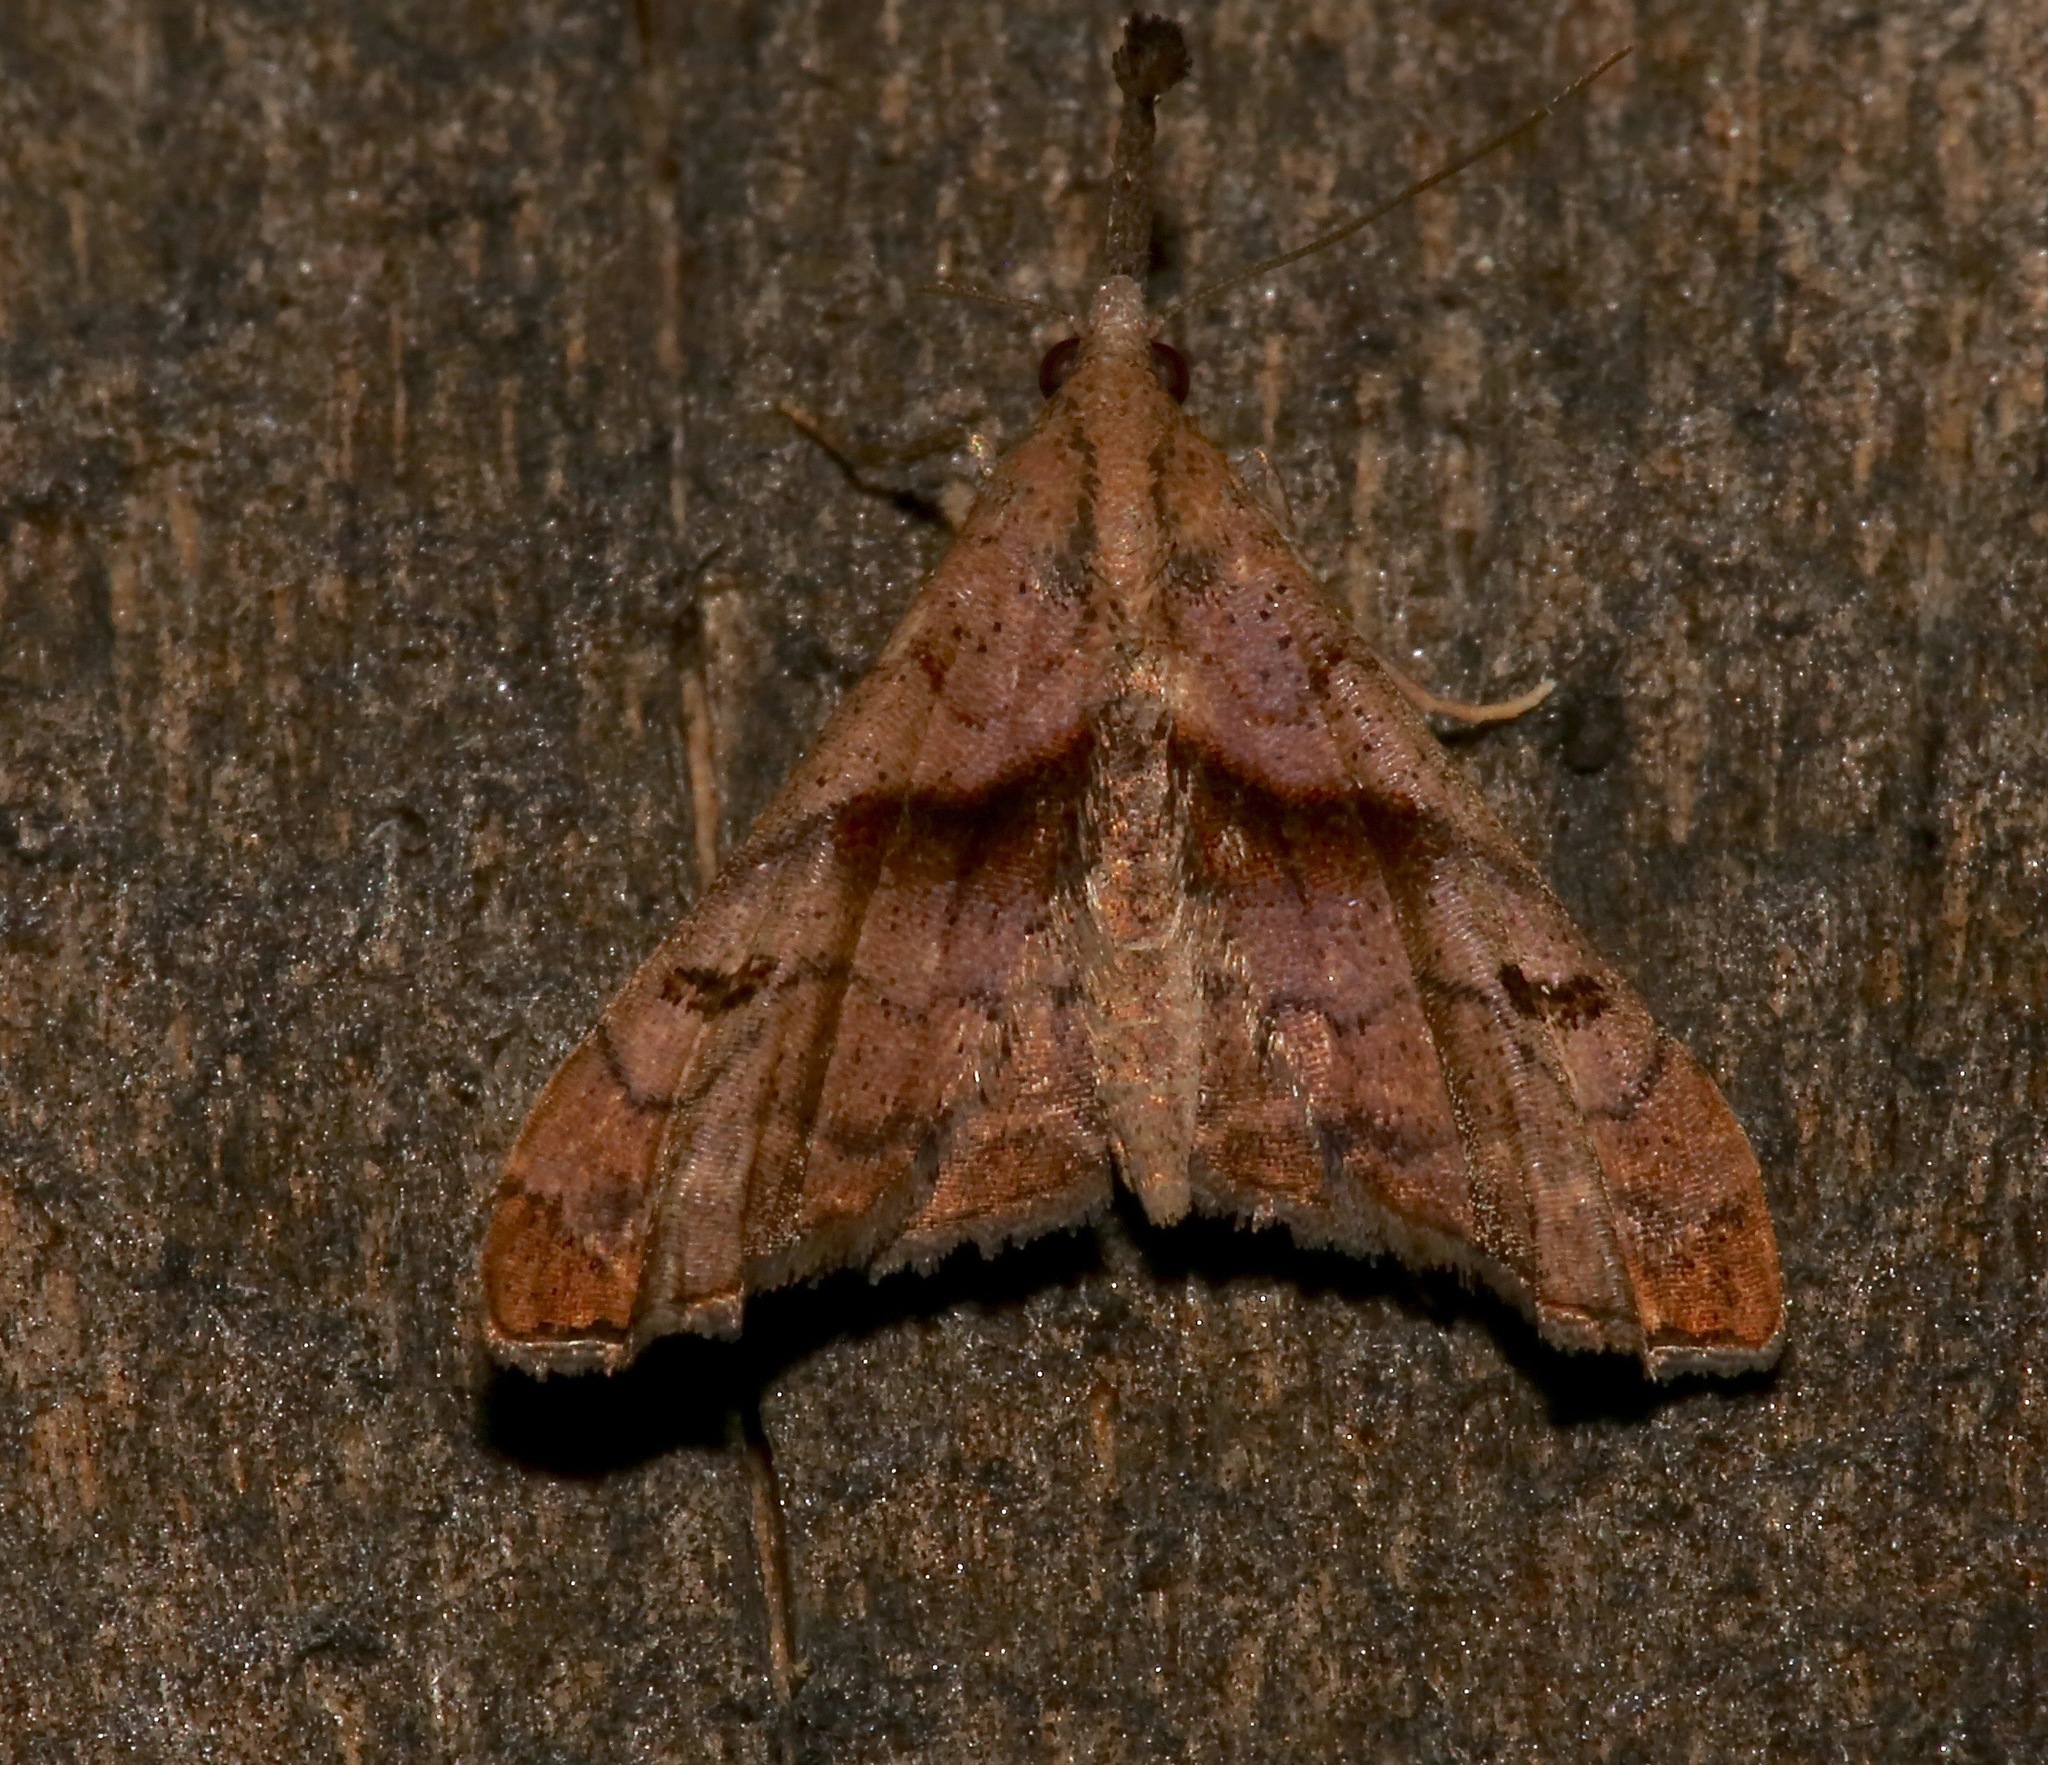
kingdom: Animalia
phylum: Arthropoda
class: Insecta
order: Lepidoptera
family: Erebidae
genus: Palthis
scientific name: Palthis angulalis
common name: Dark-spotted palthis moth
